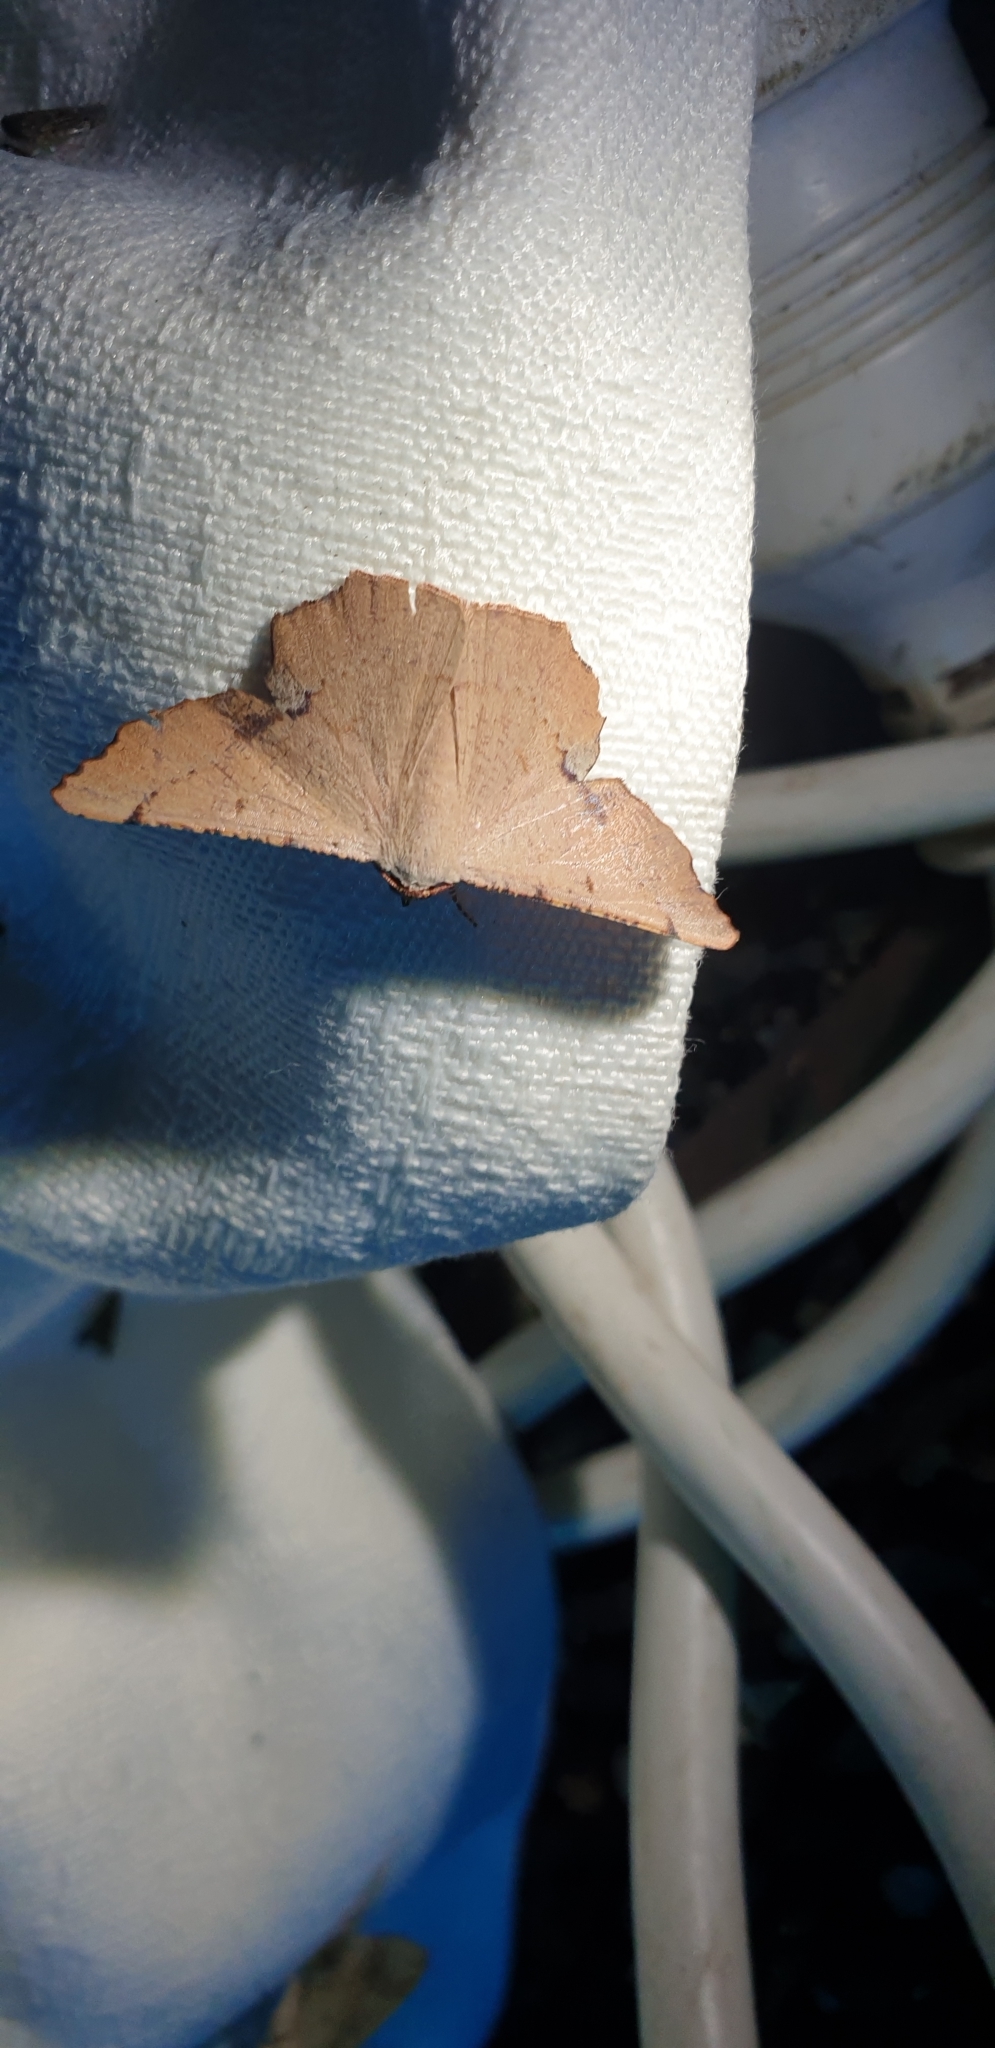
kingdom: Animalia
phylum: Arthropoda
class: Insecta
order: Lepidoptera
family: Geometridae
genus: Cernia
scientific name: Cernia amyclaria
